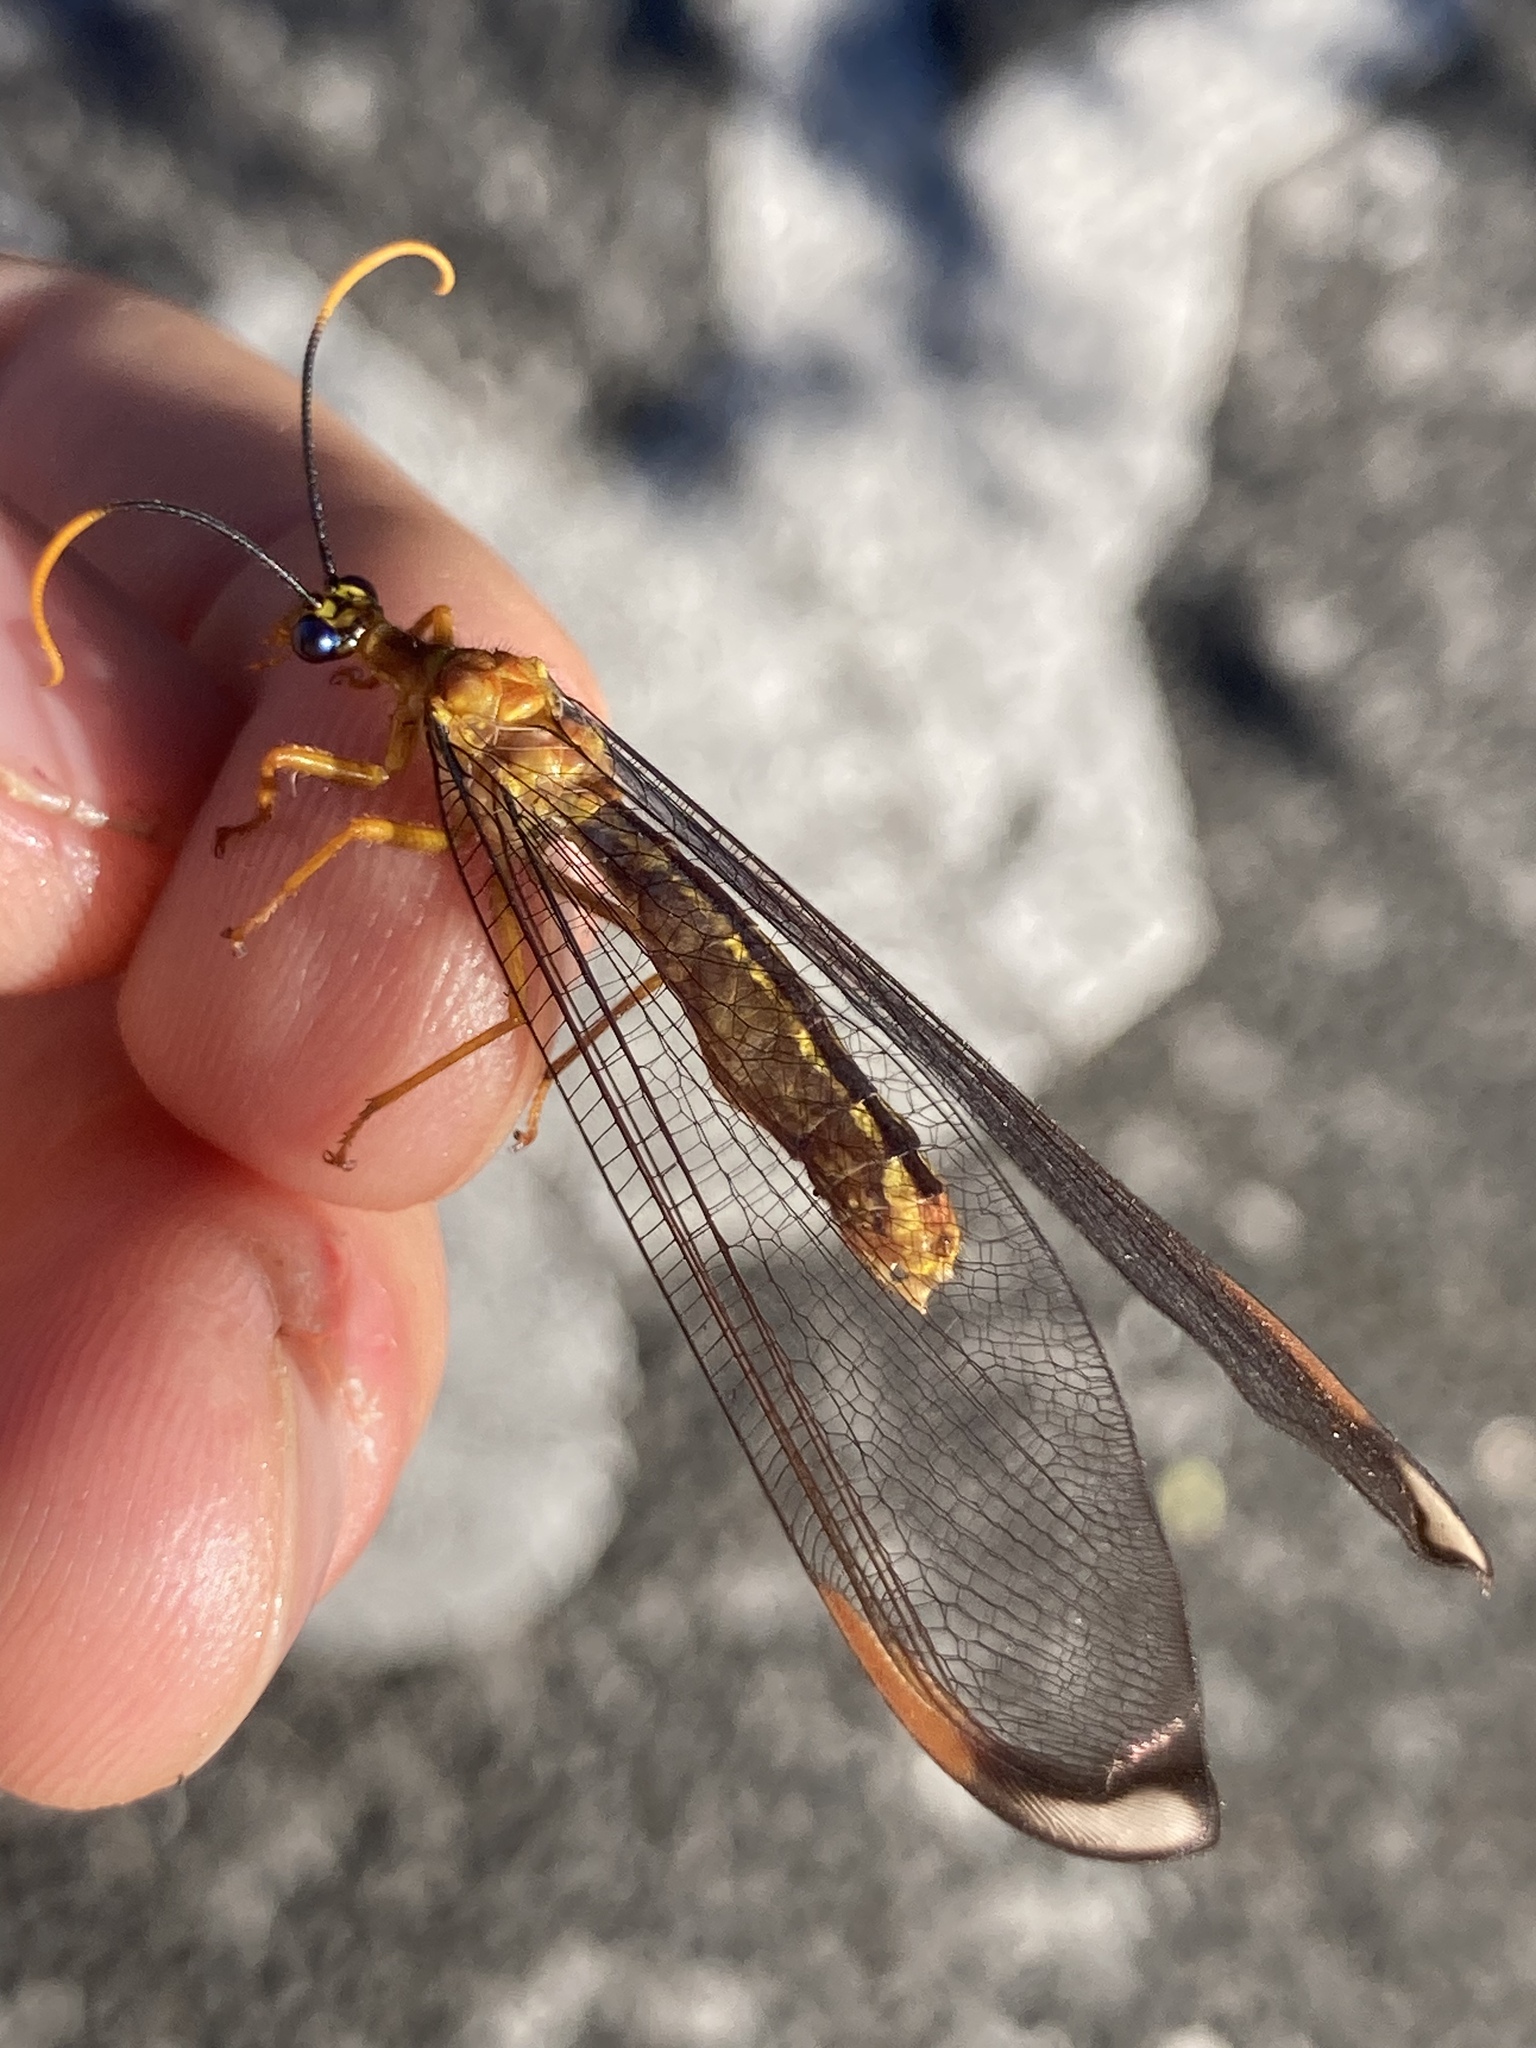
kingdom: Animalia
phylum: Arthropoda
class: Insecta
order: Neuroptera
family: Nymphidae
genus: Nymphes
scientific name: Nymphes myrmeleonoides
